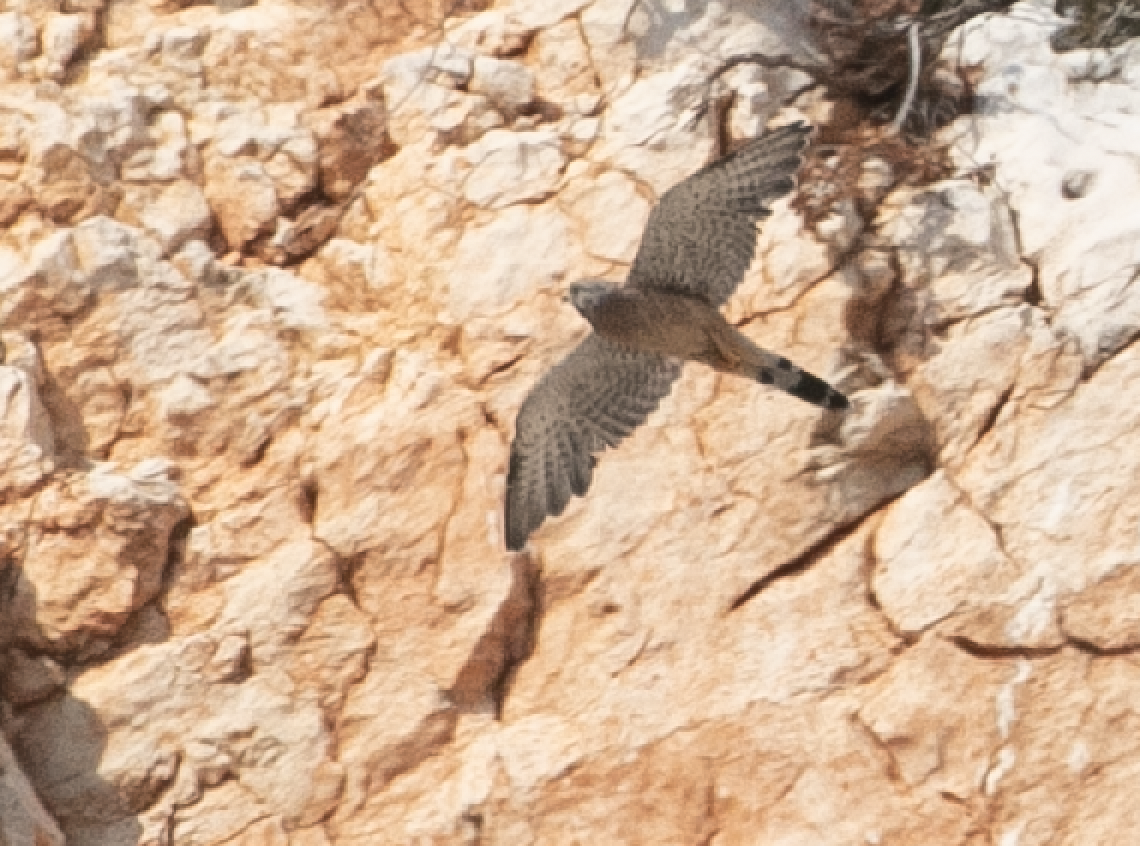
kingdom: Animalia
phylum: Chordata
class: Aves
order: Falconiformes
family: Falconidae
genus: Falco
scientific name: Falco tinnunculus
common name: Common kestrel
